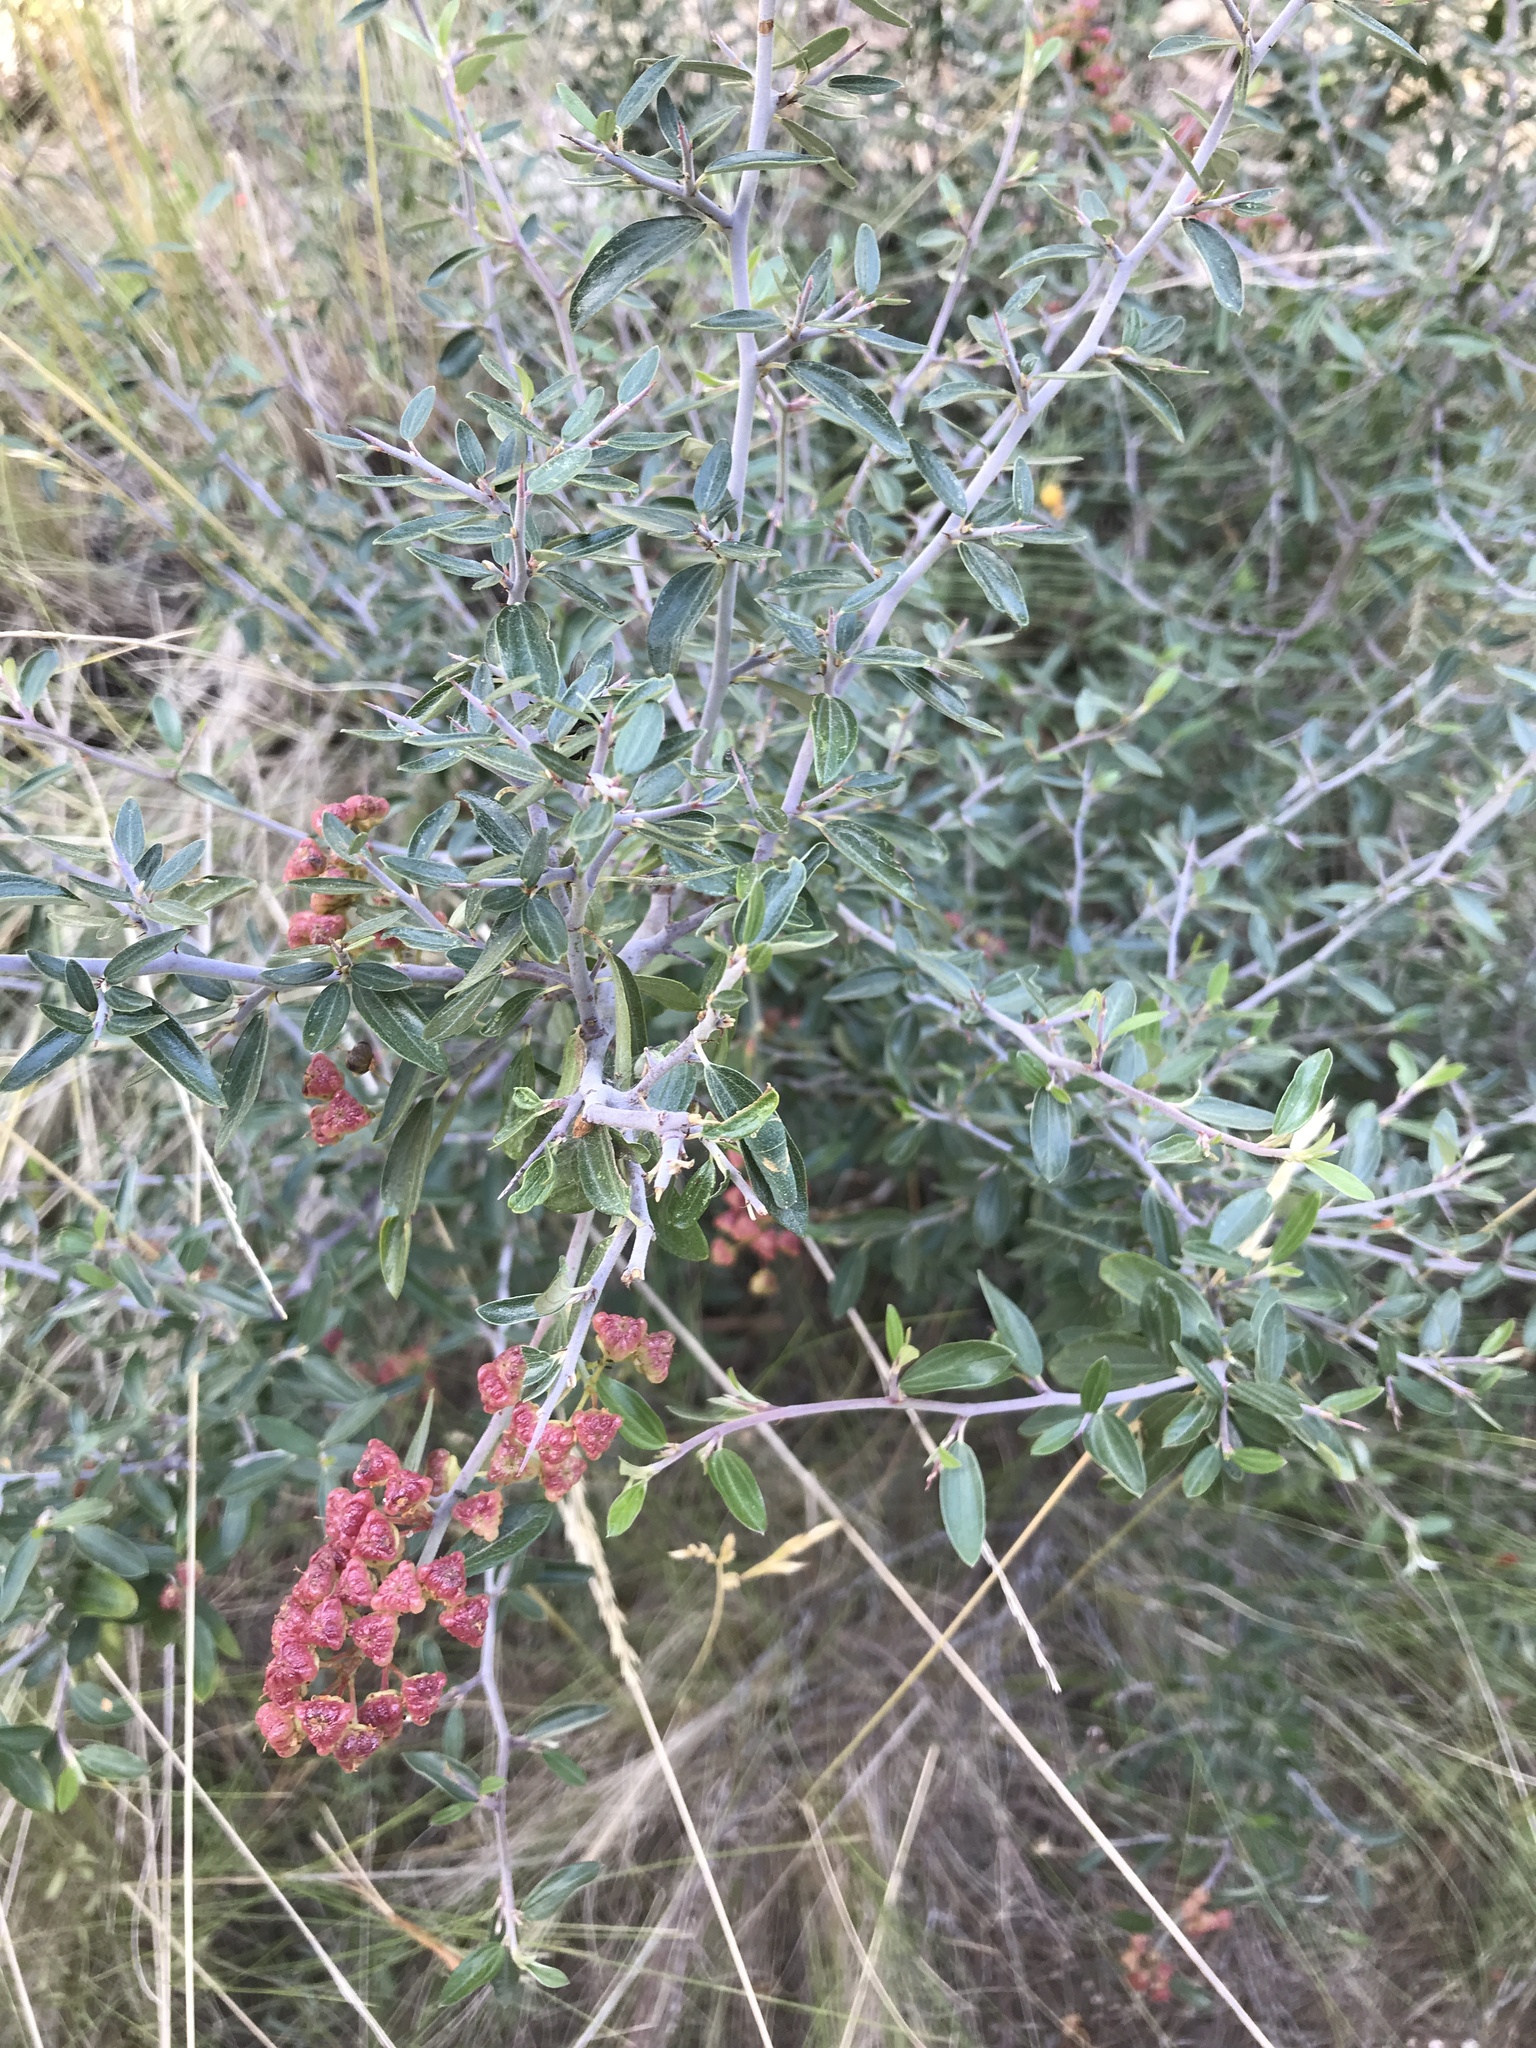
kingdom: Plantae
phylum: Tracheophyta
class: Magnoliopsida
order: Rosales
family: Rhamnaceae
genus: Ceanothus
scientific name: Ceanothus fendleri
